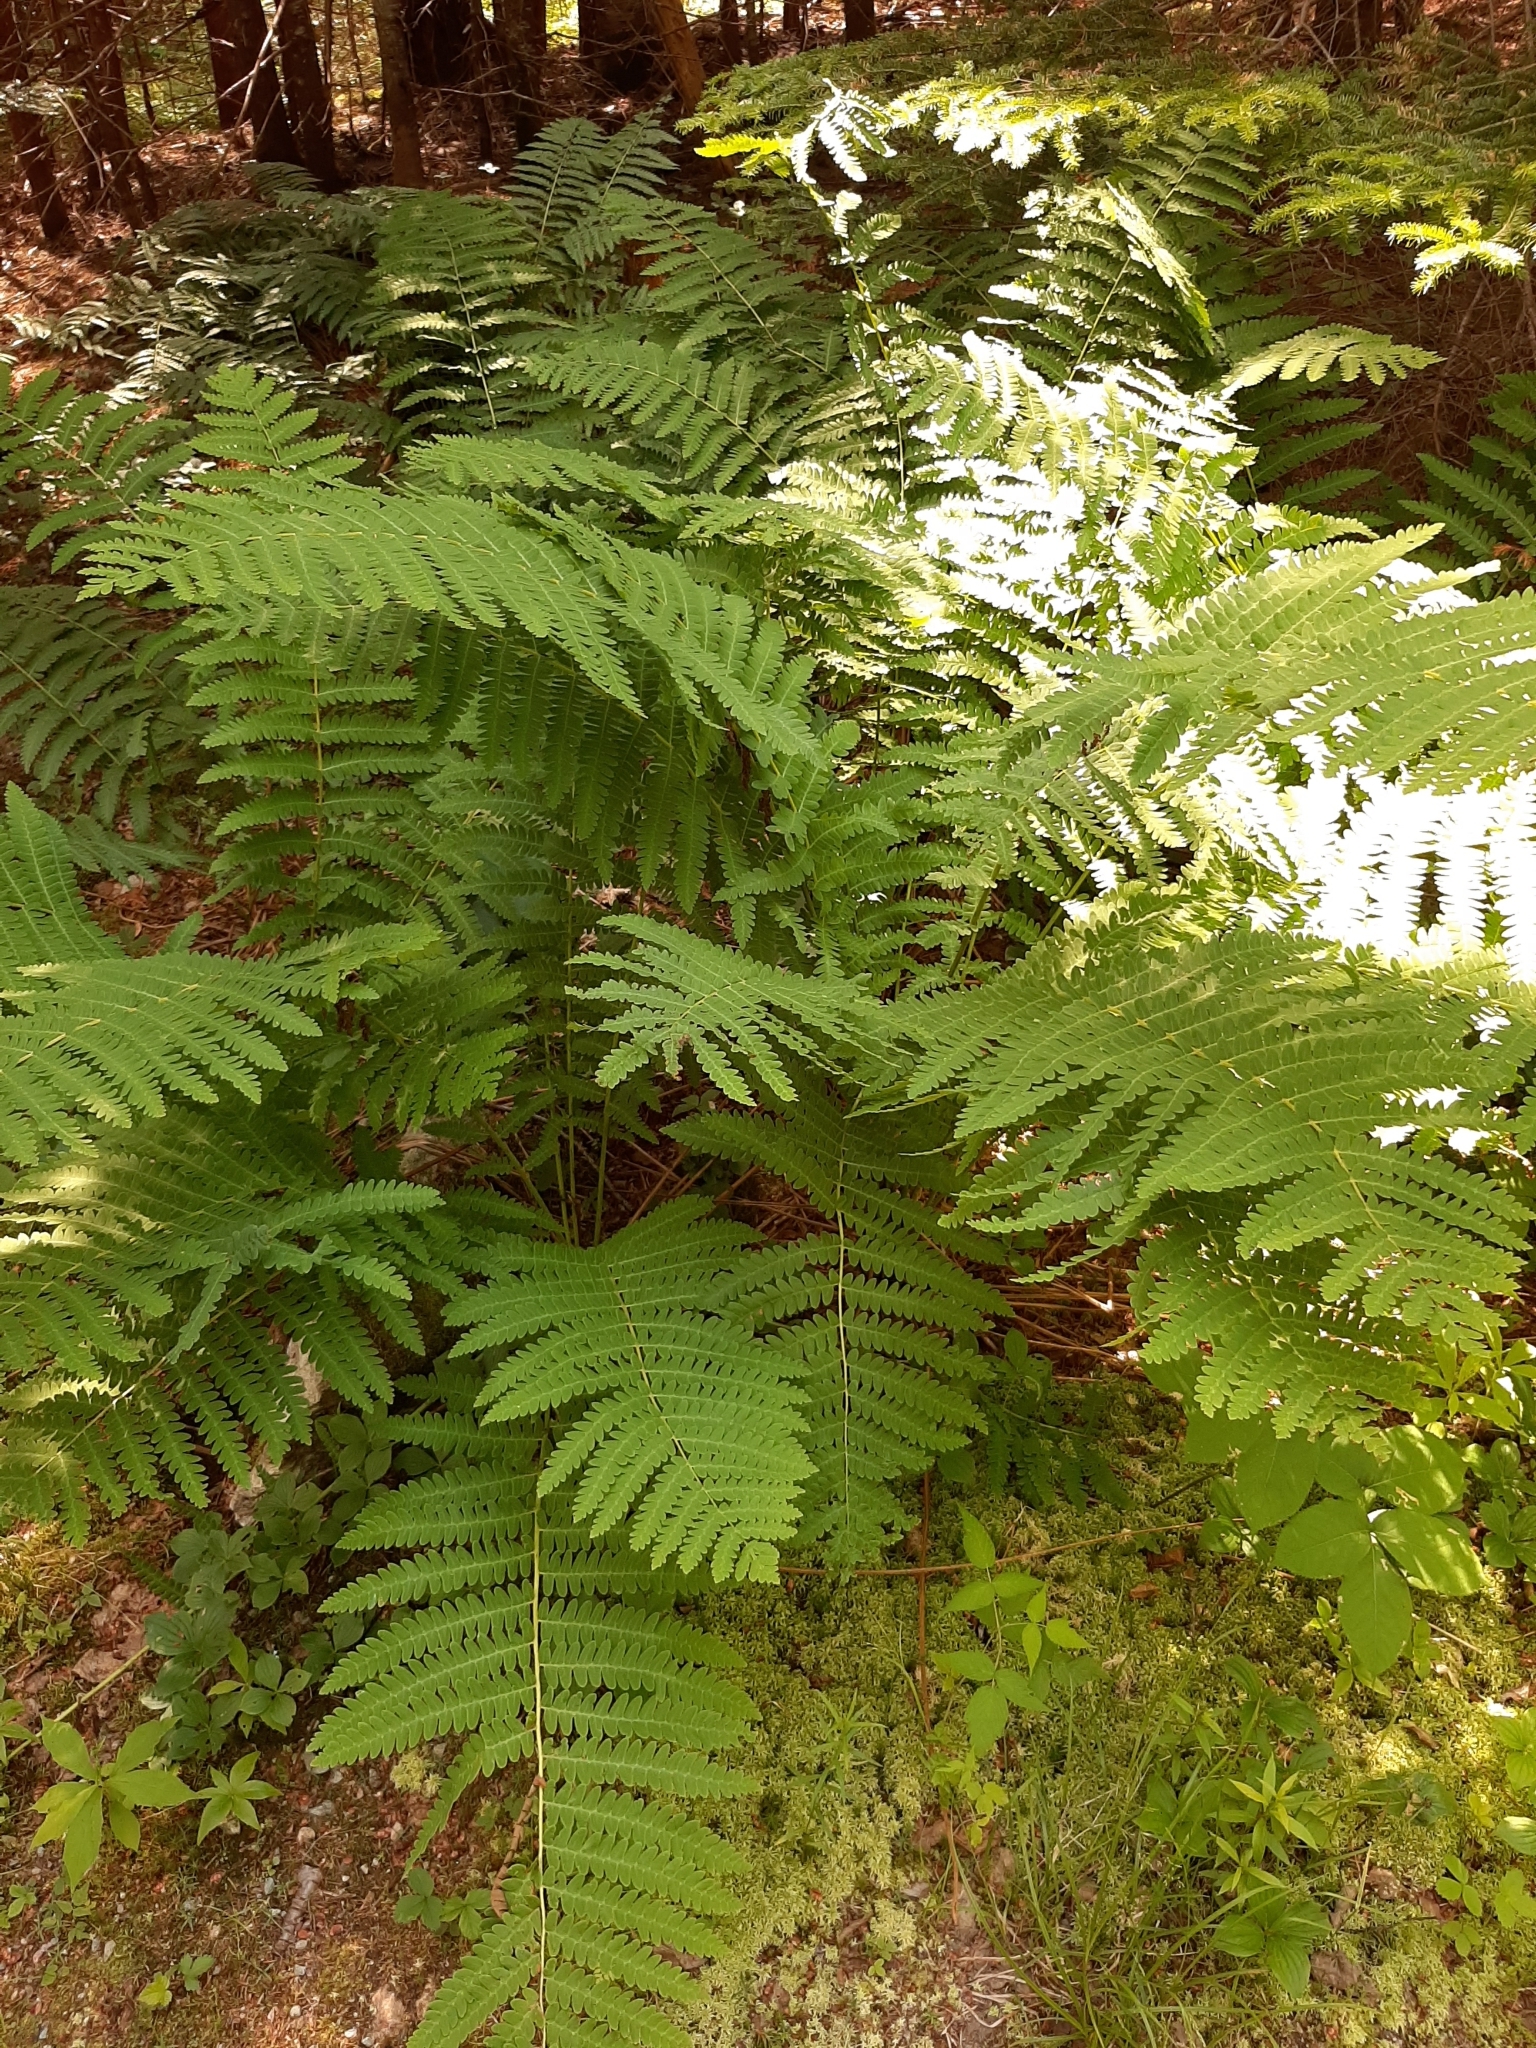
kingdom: Plantae
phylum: Tracheophyta
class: Polypodiopsida
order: Osmundales
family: Osmundaceae
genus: Claytosmunda
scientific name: Claytosmunda claytoniana
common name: Clayton's fern
